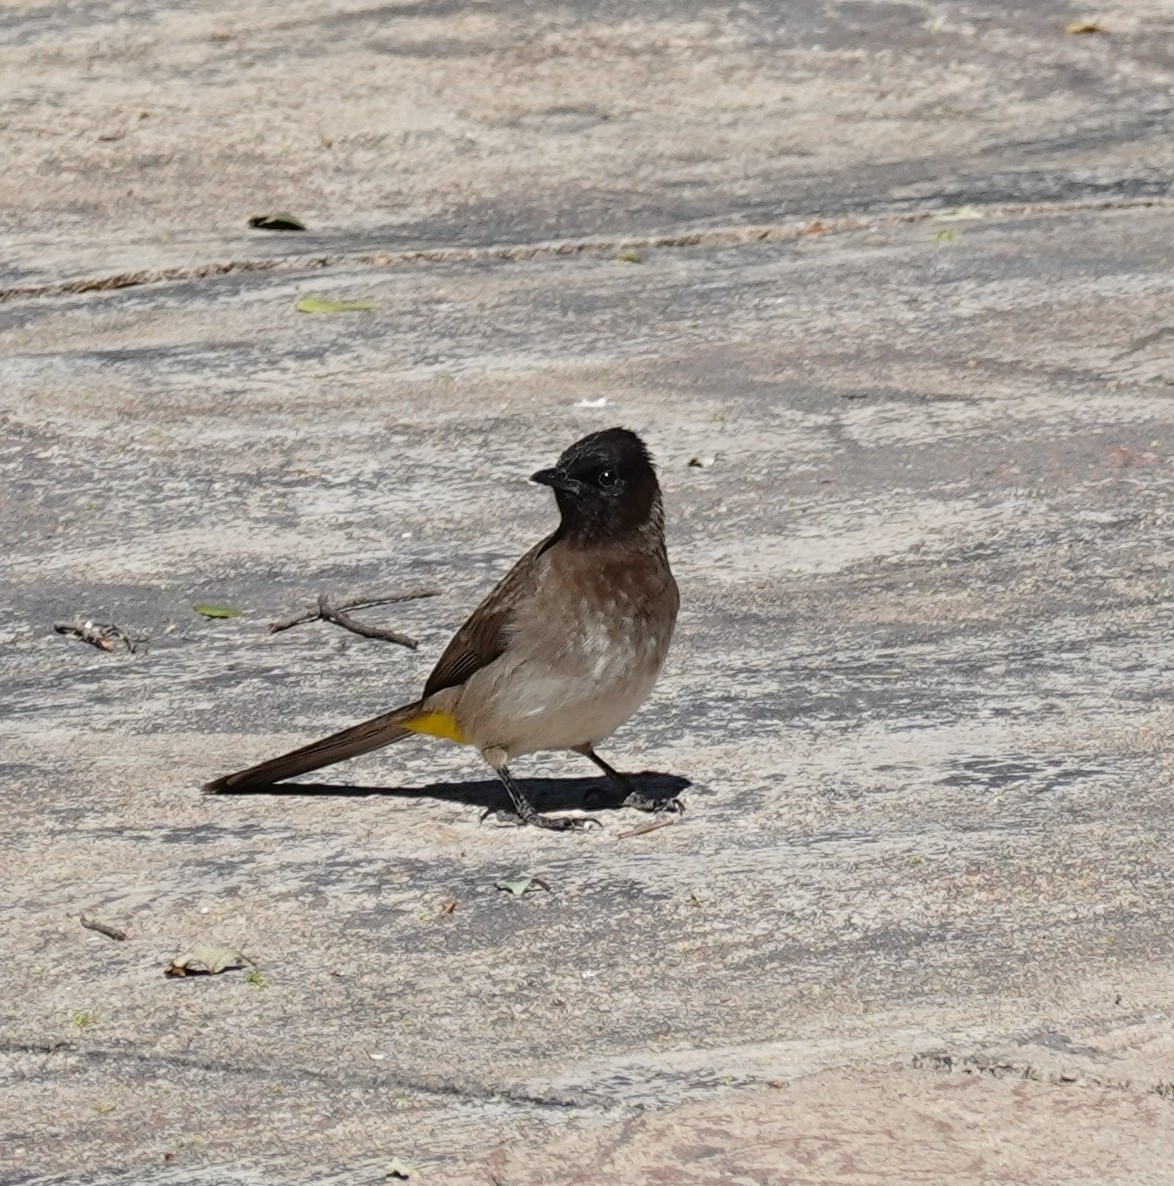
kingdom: Animalia
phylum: Chordata
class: Aves
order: Passeriformes
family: Pycnonotidae
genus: Pycnonotus
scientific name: Pycnonotus barbatus
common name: Common bulbul
